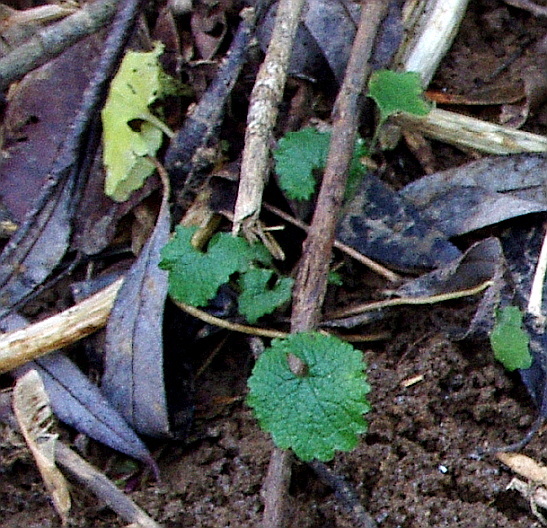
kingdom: Plantae
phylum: Tracheophyta
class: Magnoliopsida
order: Brassicales
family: Brassicaceae
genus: Alliaria
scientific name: Alliaria petiolata
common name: Garlic mustard
